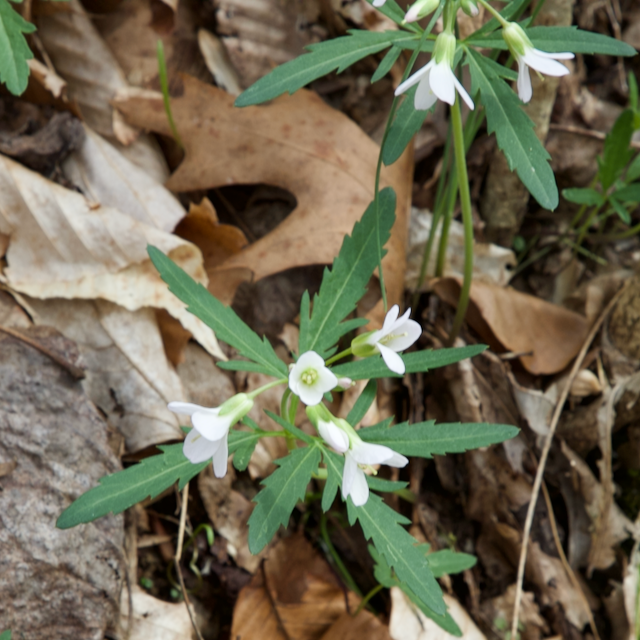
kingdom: Plantae
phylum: Tracheophyta
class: Magnoliopsida
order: Brassicales
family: Brassicaceae
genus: Cardamine
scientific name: Cardamine concatenata
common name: Cut-leaf toothcup
